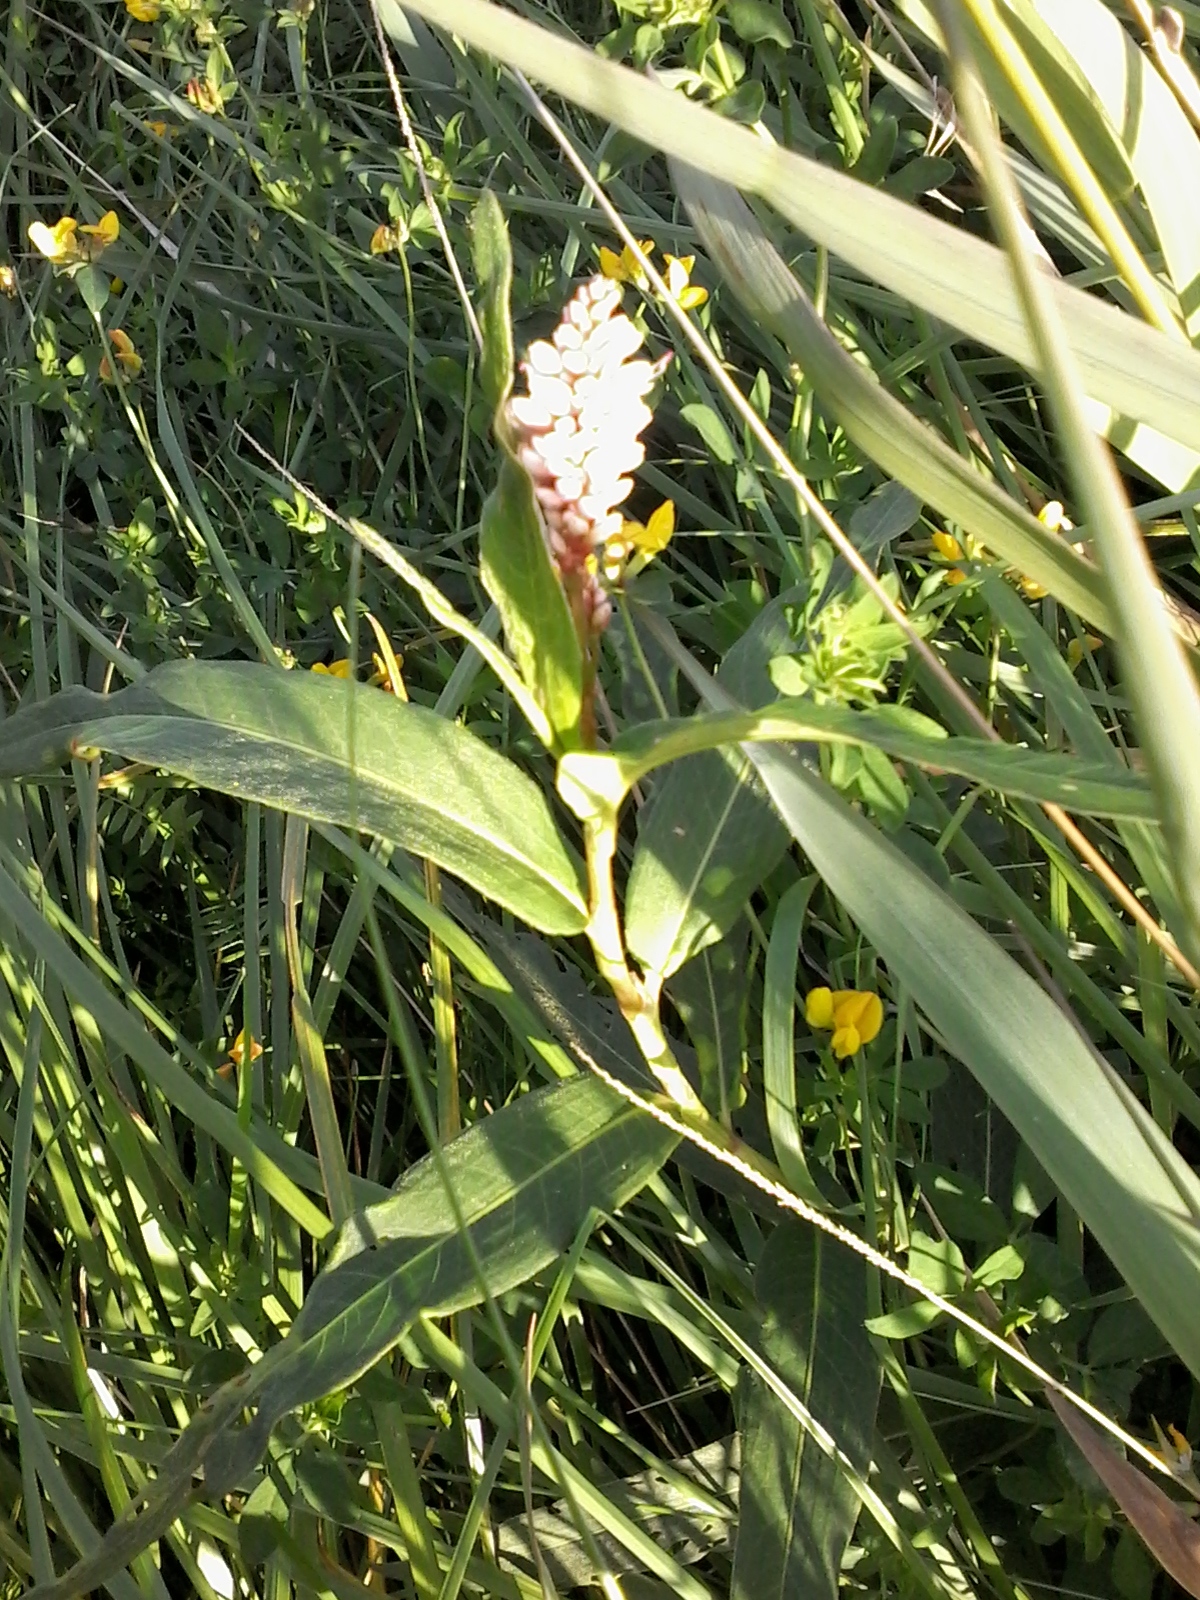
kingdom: Plantae
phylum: Tracheophyta
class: Magnoliopsida
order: Caryophyllales
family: Polygonaceae
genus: Persicaria
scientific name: Persicaria amphibia
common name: Amphibious bistort
